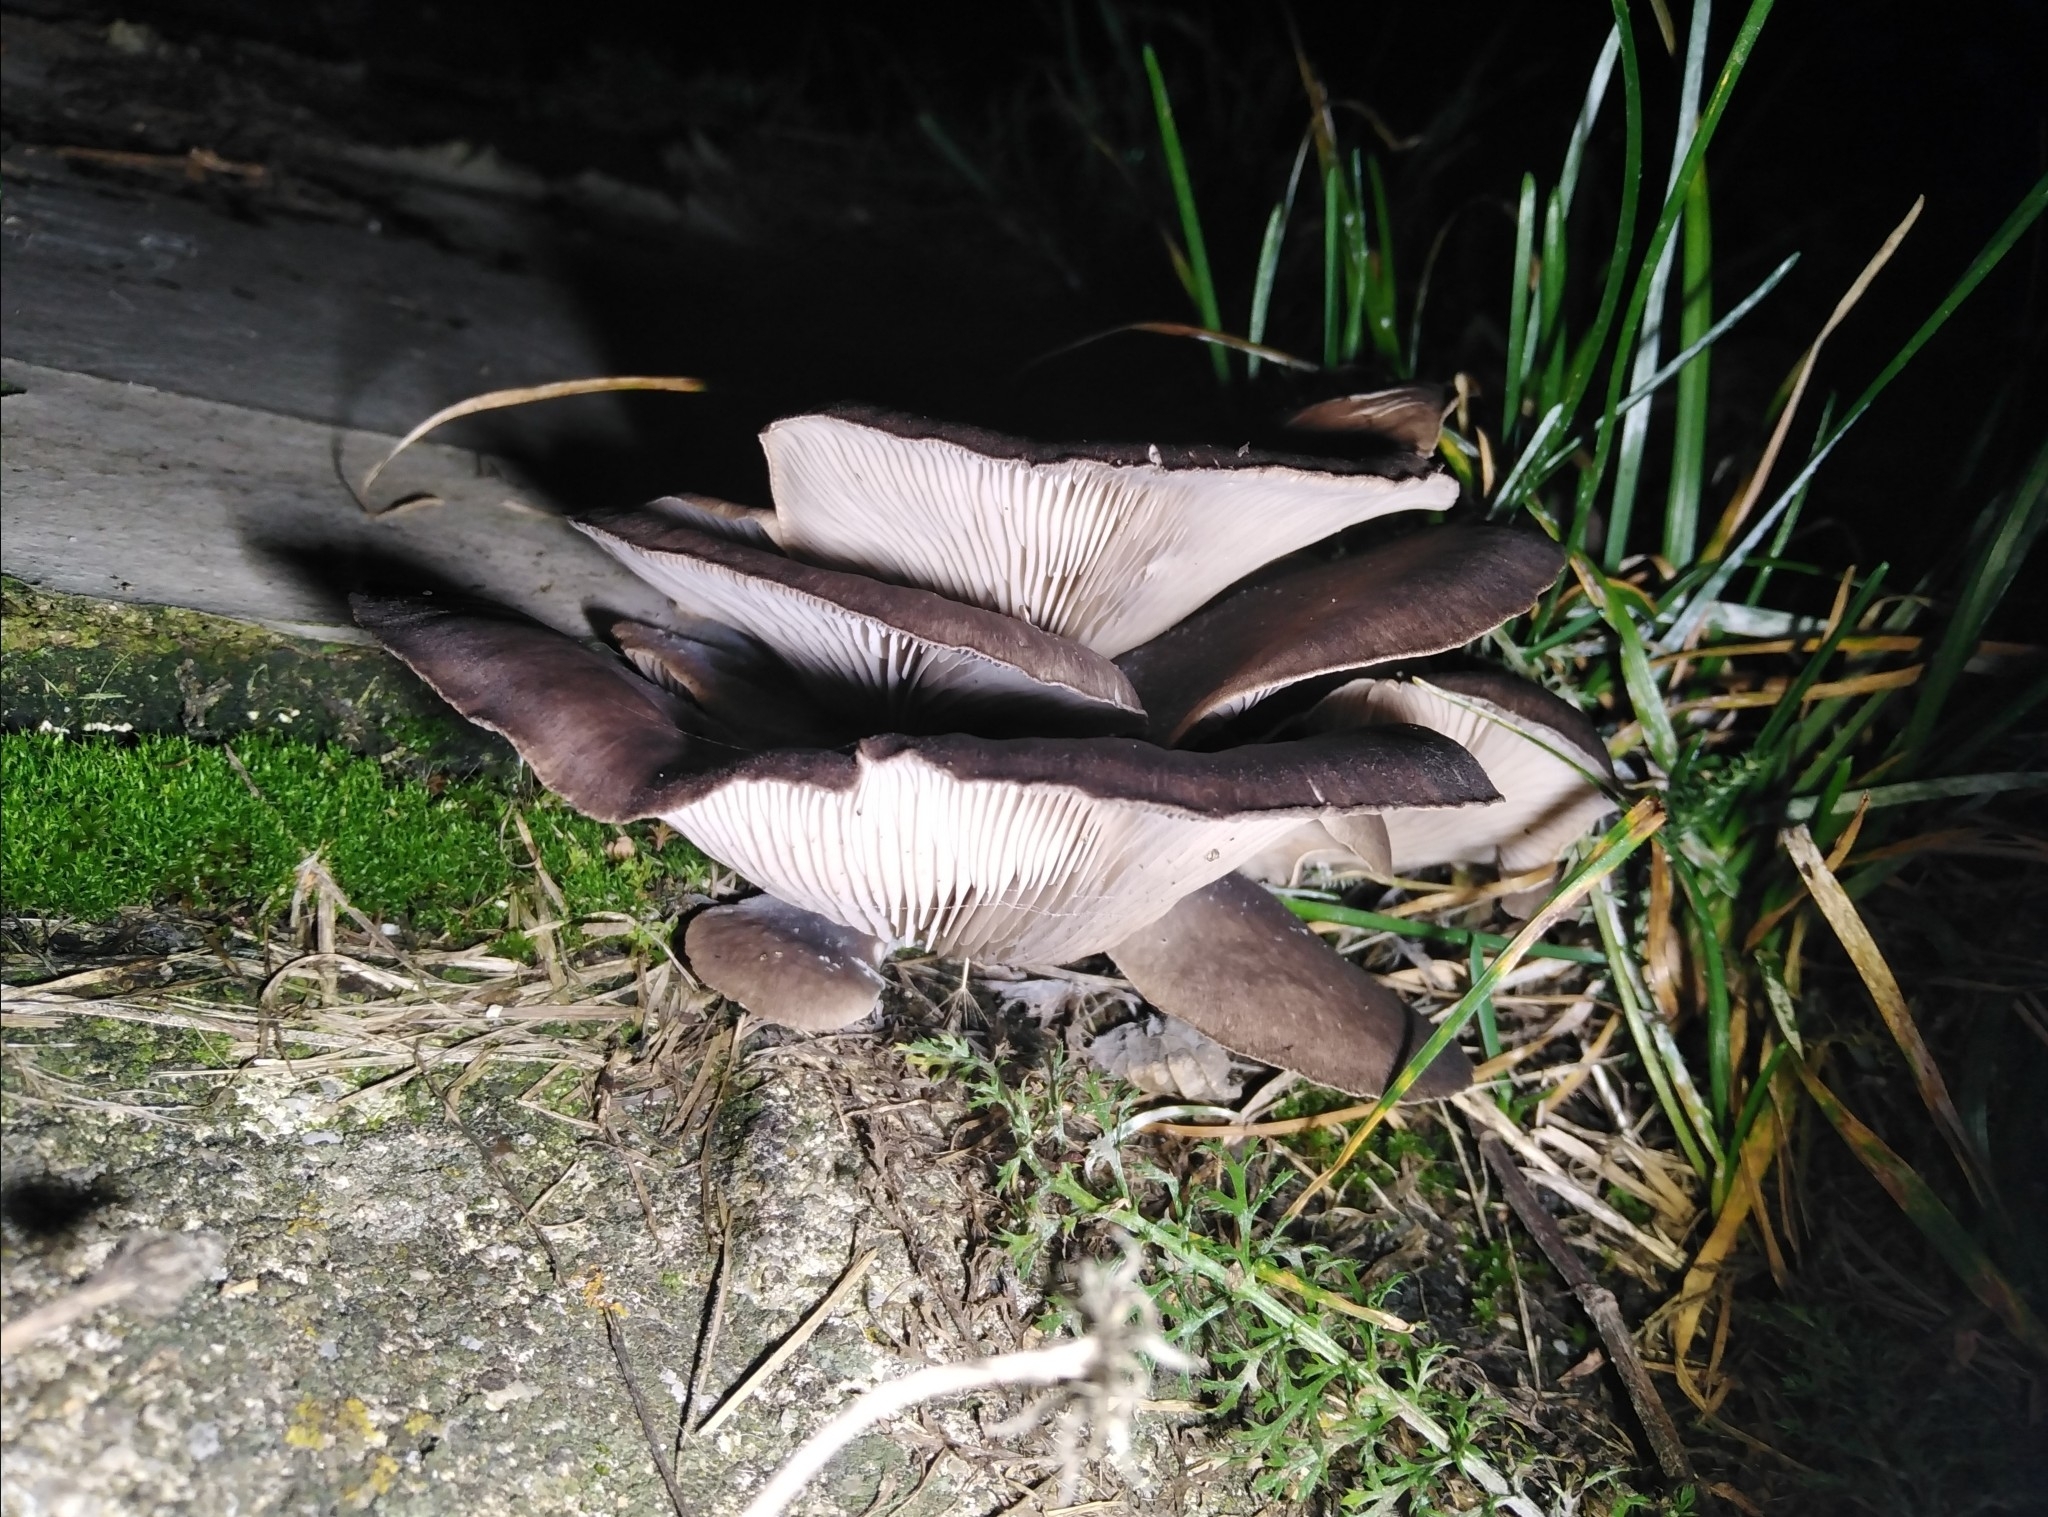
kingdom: Fungi
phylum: Basidiomycota
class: Agaricomycetes
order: Agaricales
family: Pleurotaceae
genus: Pleurotus
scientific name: Pleurotus ostreatus
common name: Oyster mushroom
